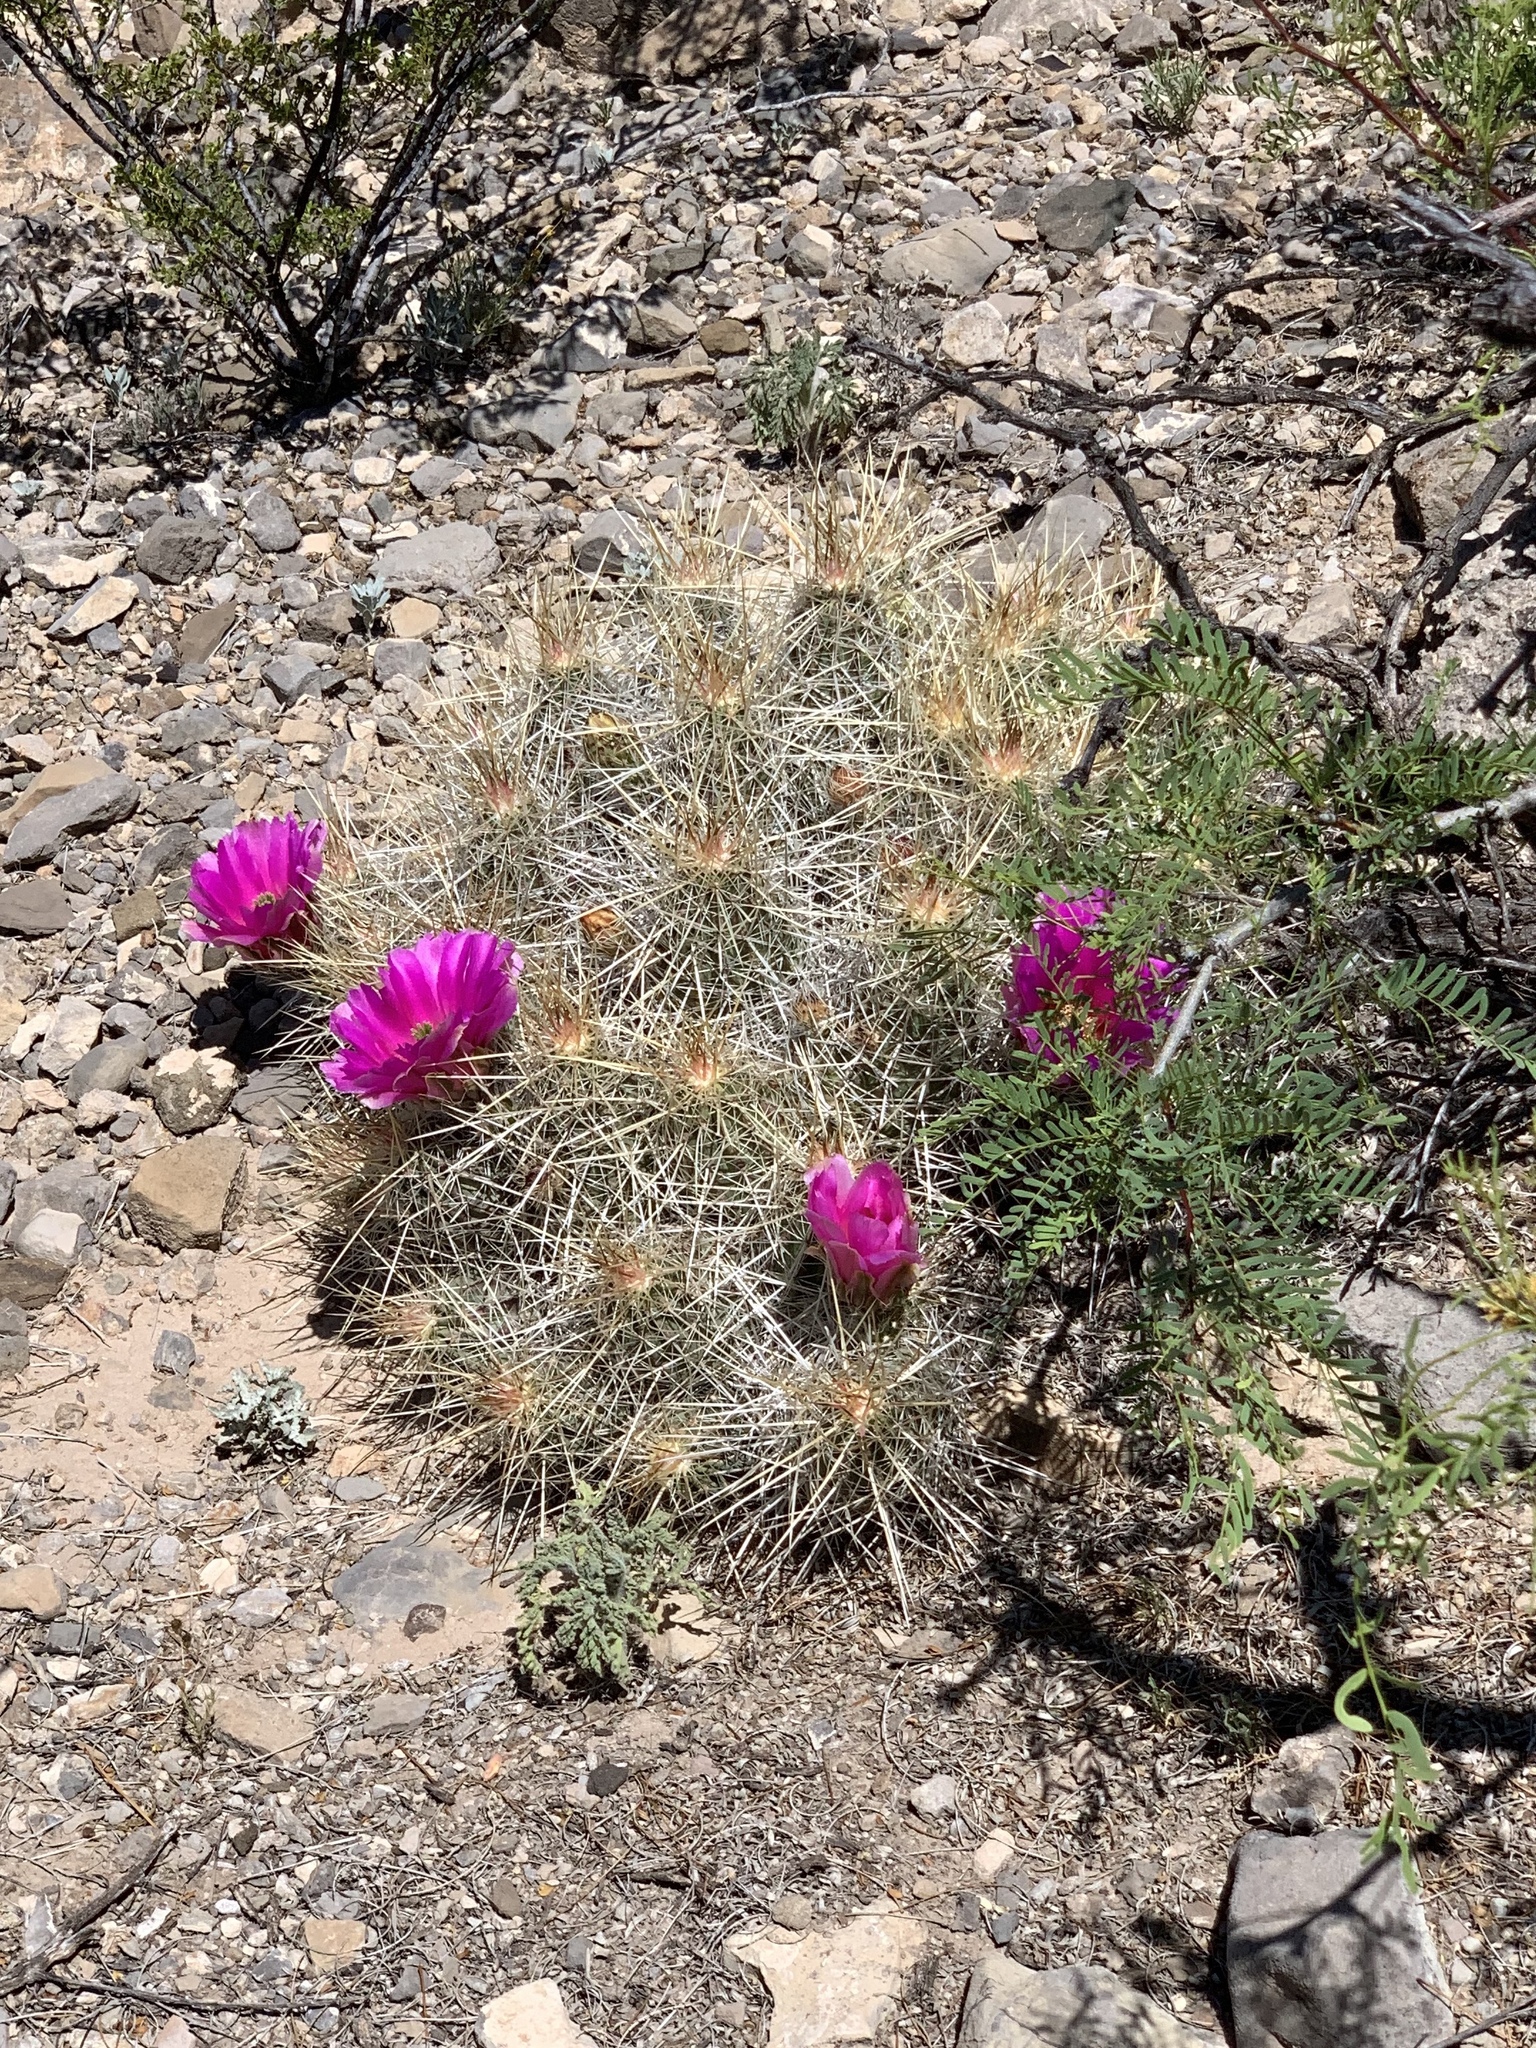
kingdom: Plantae
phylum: Tracheophyta
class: Magnoliopsida
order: Caryophyllales
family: Cactaceae
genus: Echinocereus
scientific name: Echinocereus stramineus
